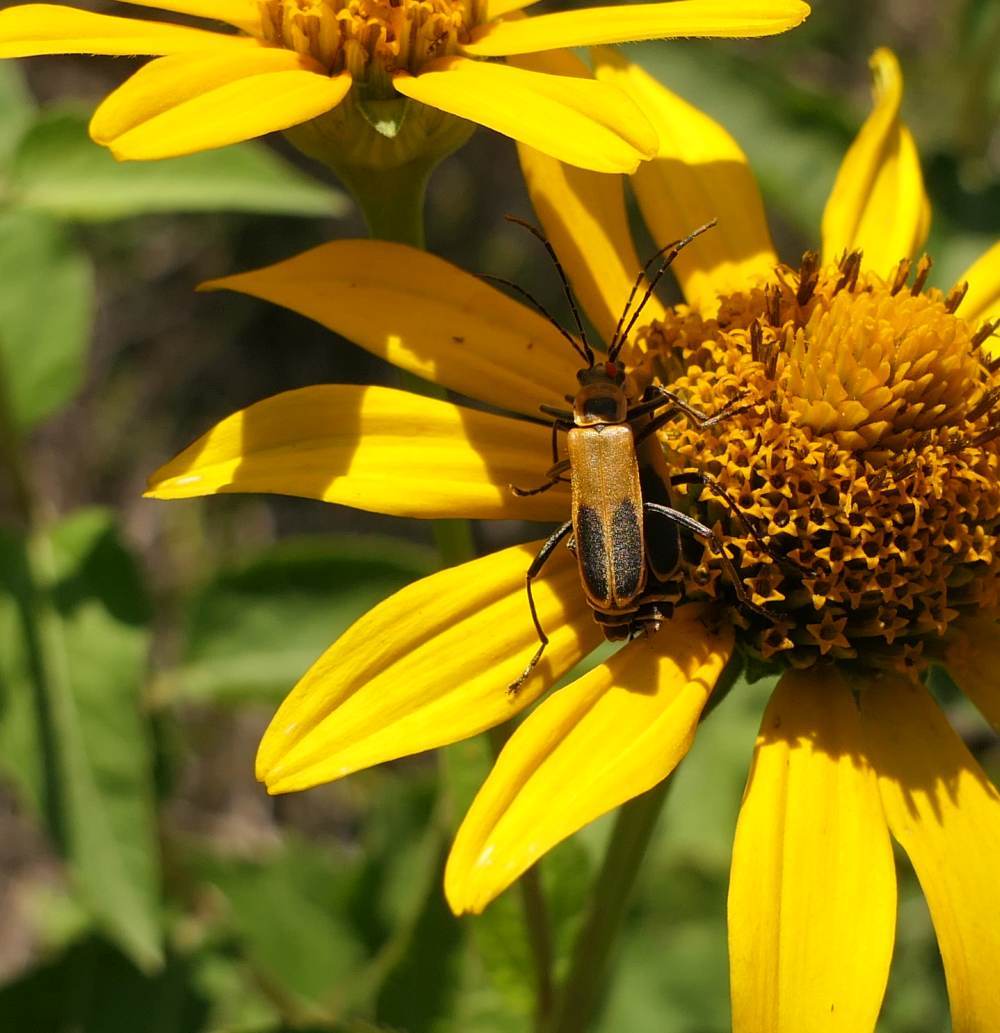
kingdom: Animalia
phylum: Arthropoda
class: Insecta
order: Coleoptera
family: Cantharidae
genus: Chauliognathus
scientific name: Chauliognathus pensylvanicus
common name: Goldenrod soldier beetle
